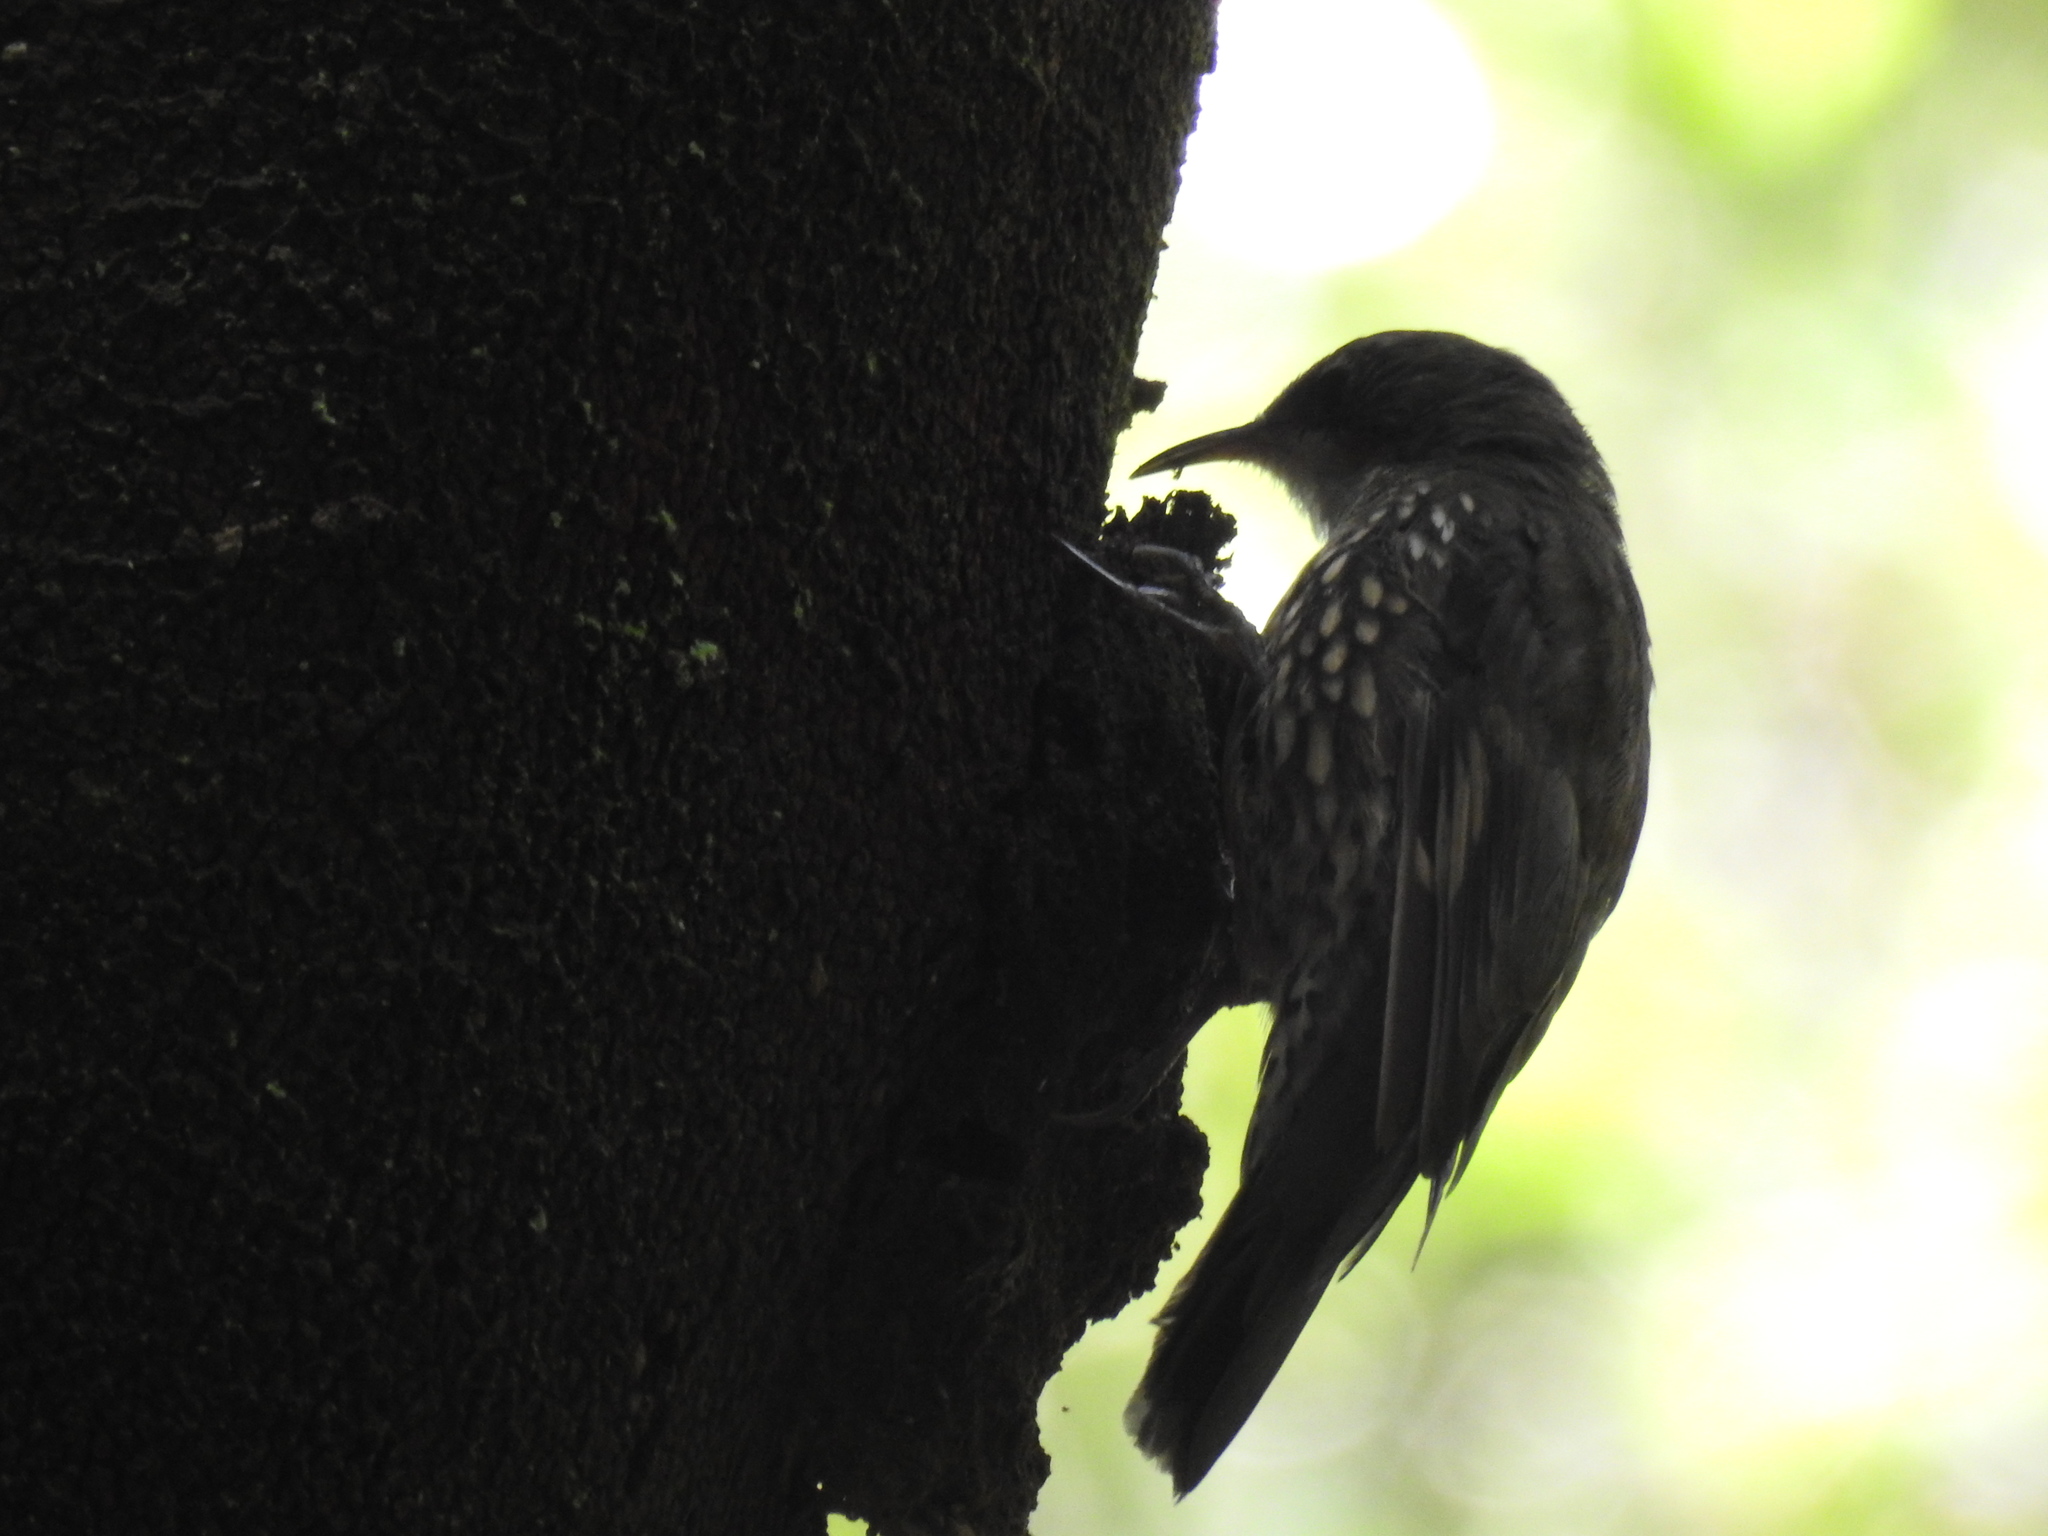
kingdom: Animalia
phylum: Chordata
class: Aves
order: Passeriformes
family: Climacteridae
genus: Cormobates
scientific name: Cormobates leucophaea
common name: White-throated treecreeper
